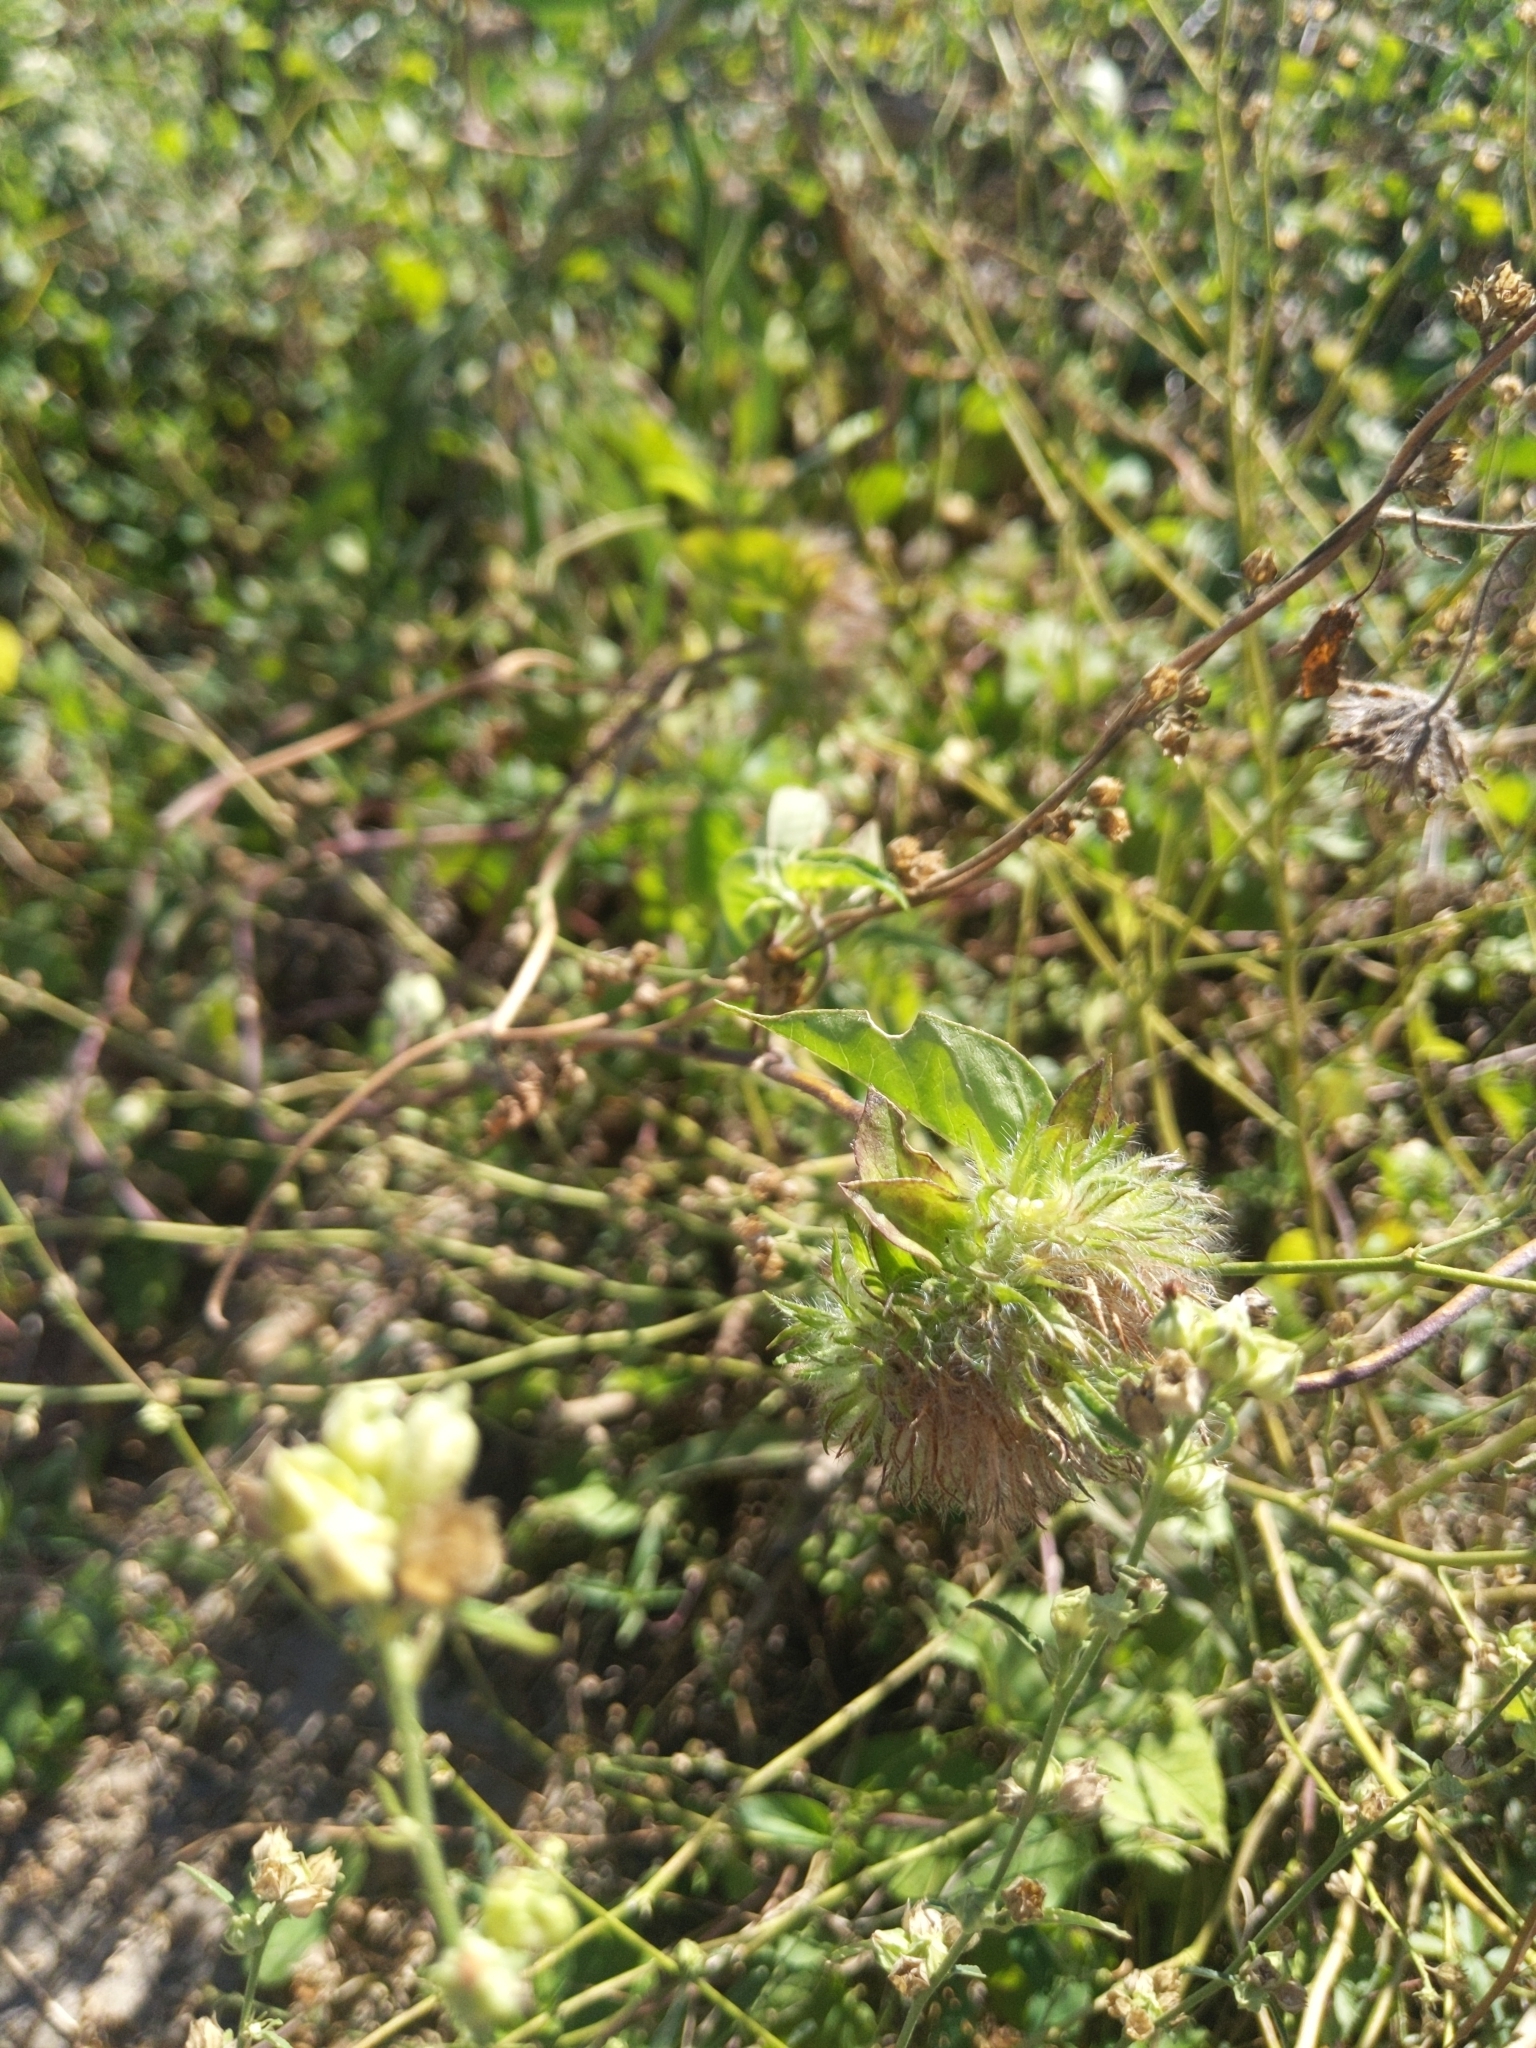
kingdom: Plantae
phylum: Tracheophyta
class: Magnoliopsida
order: Solanales
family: Convolvulaceae
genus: Jacquemontia
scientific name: Jacquemontia tamnifolia
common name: Hairy clustervine
